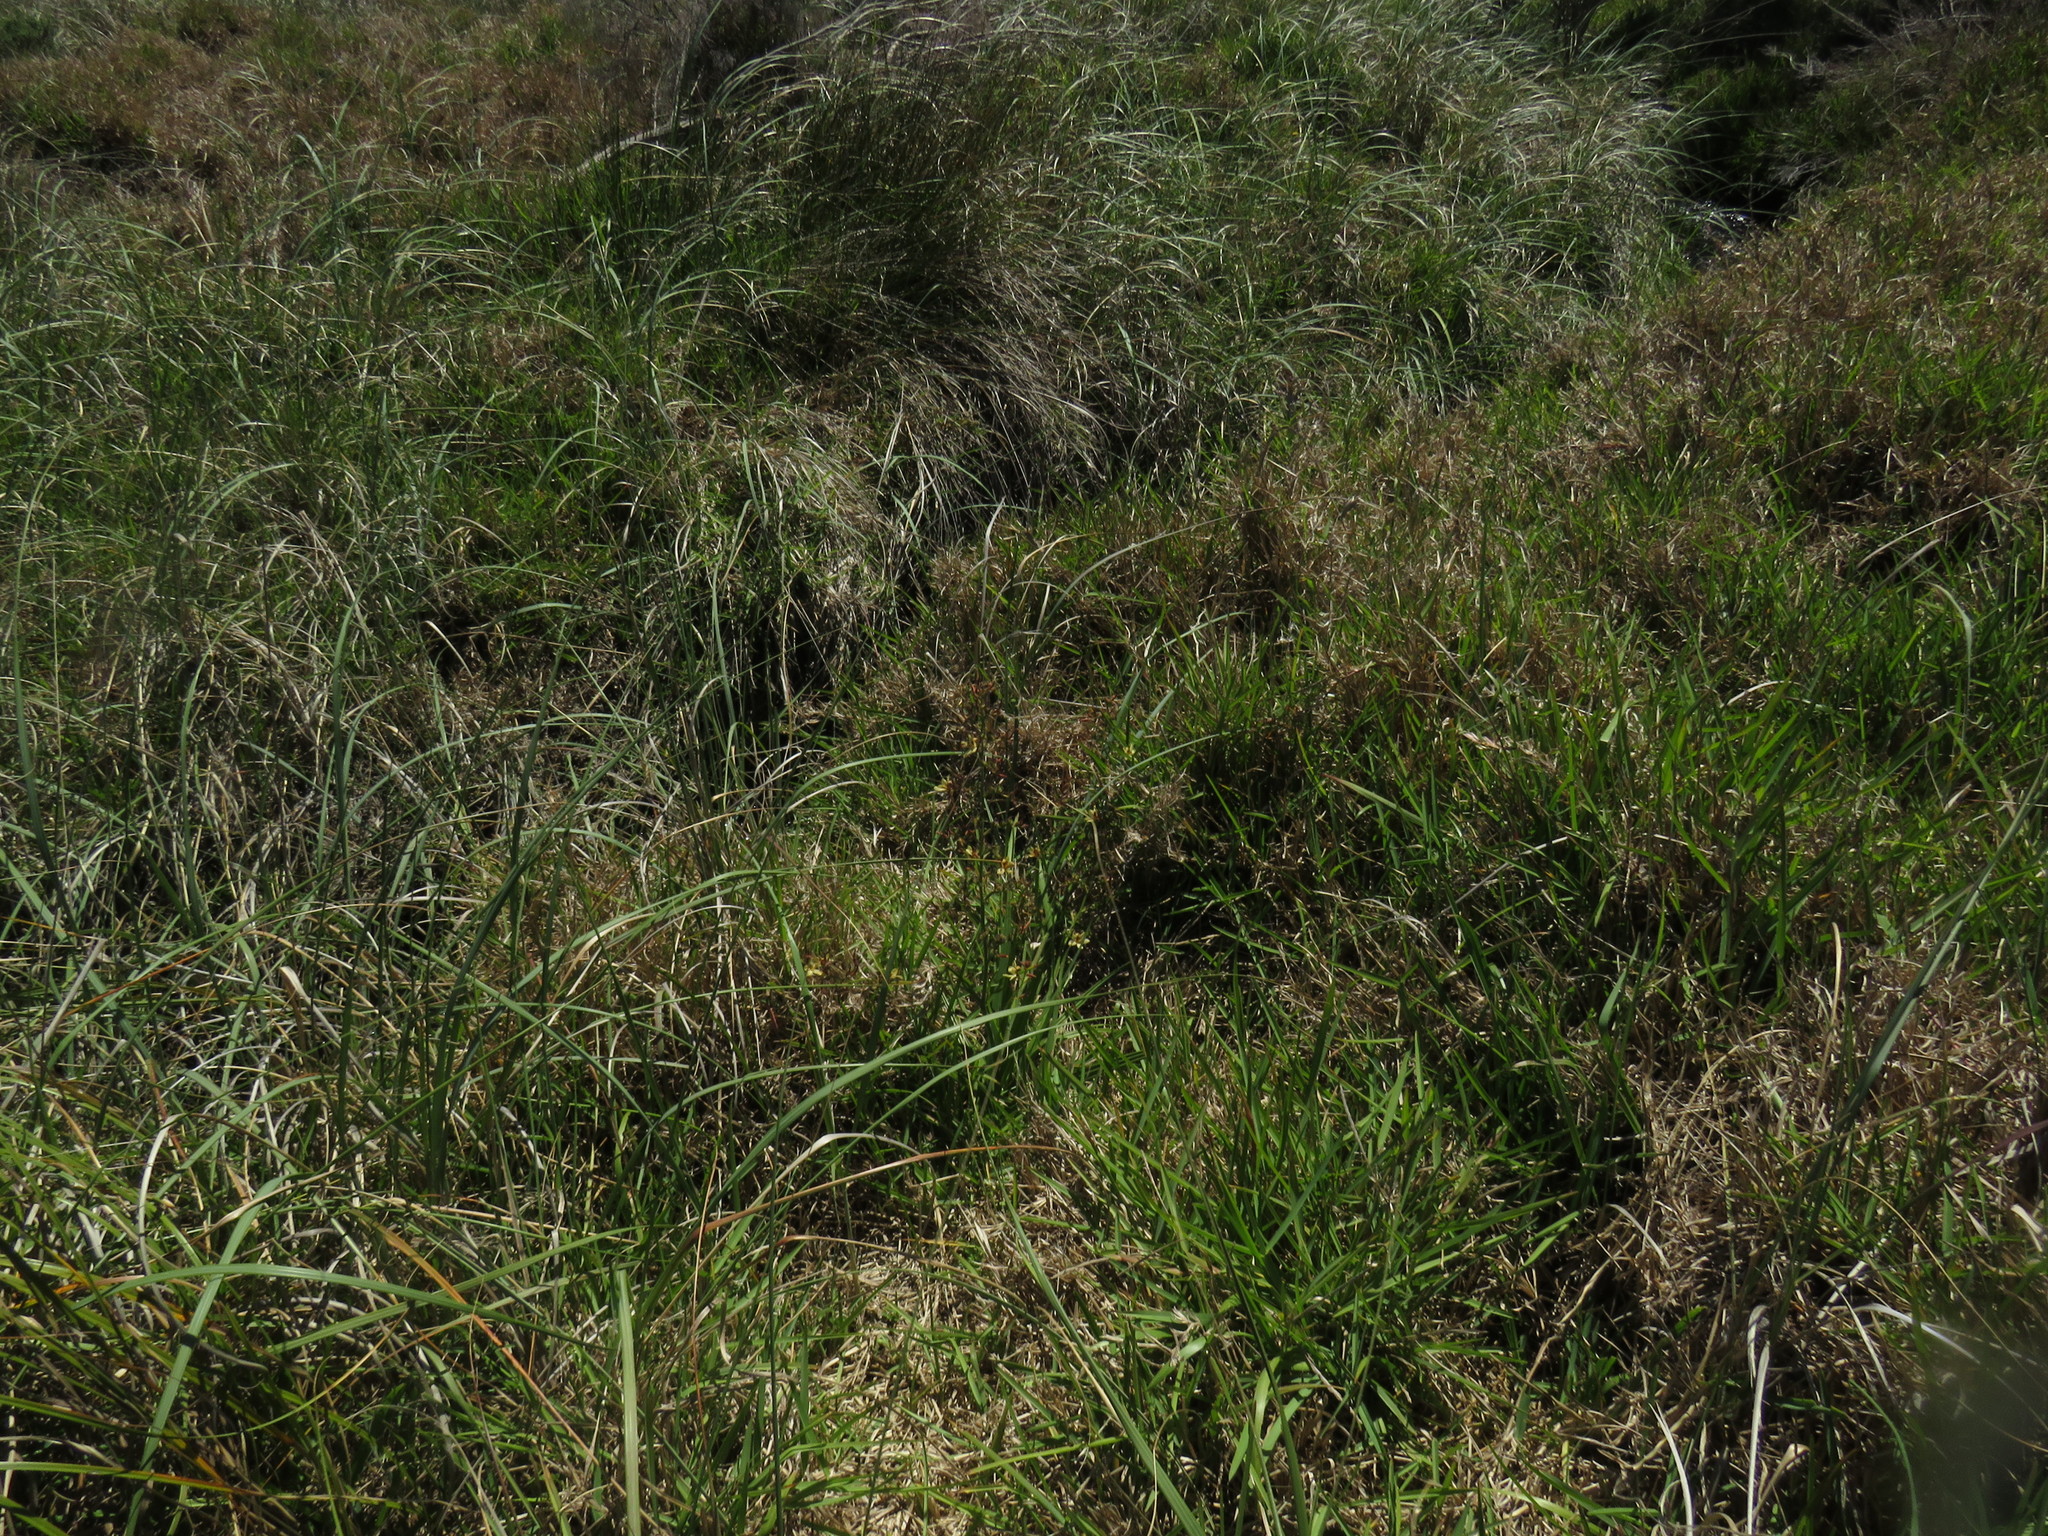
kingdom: Plantae
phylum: Tracheophyta
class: Liliopsida
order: Poales
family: Poaceae
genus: Stenotaphrum
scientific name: Stenotaphrum secundatum
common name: St. augustine grass
